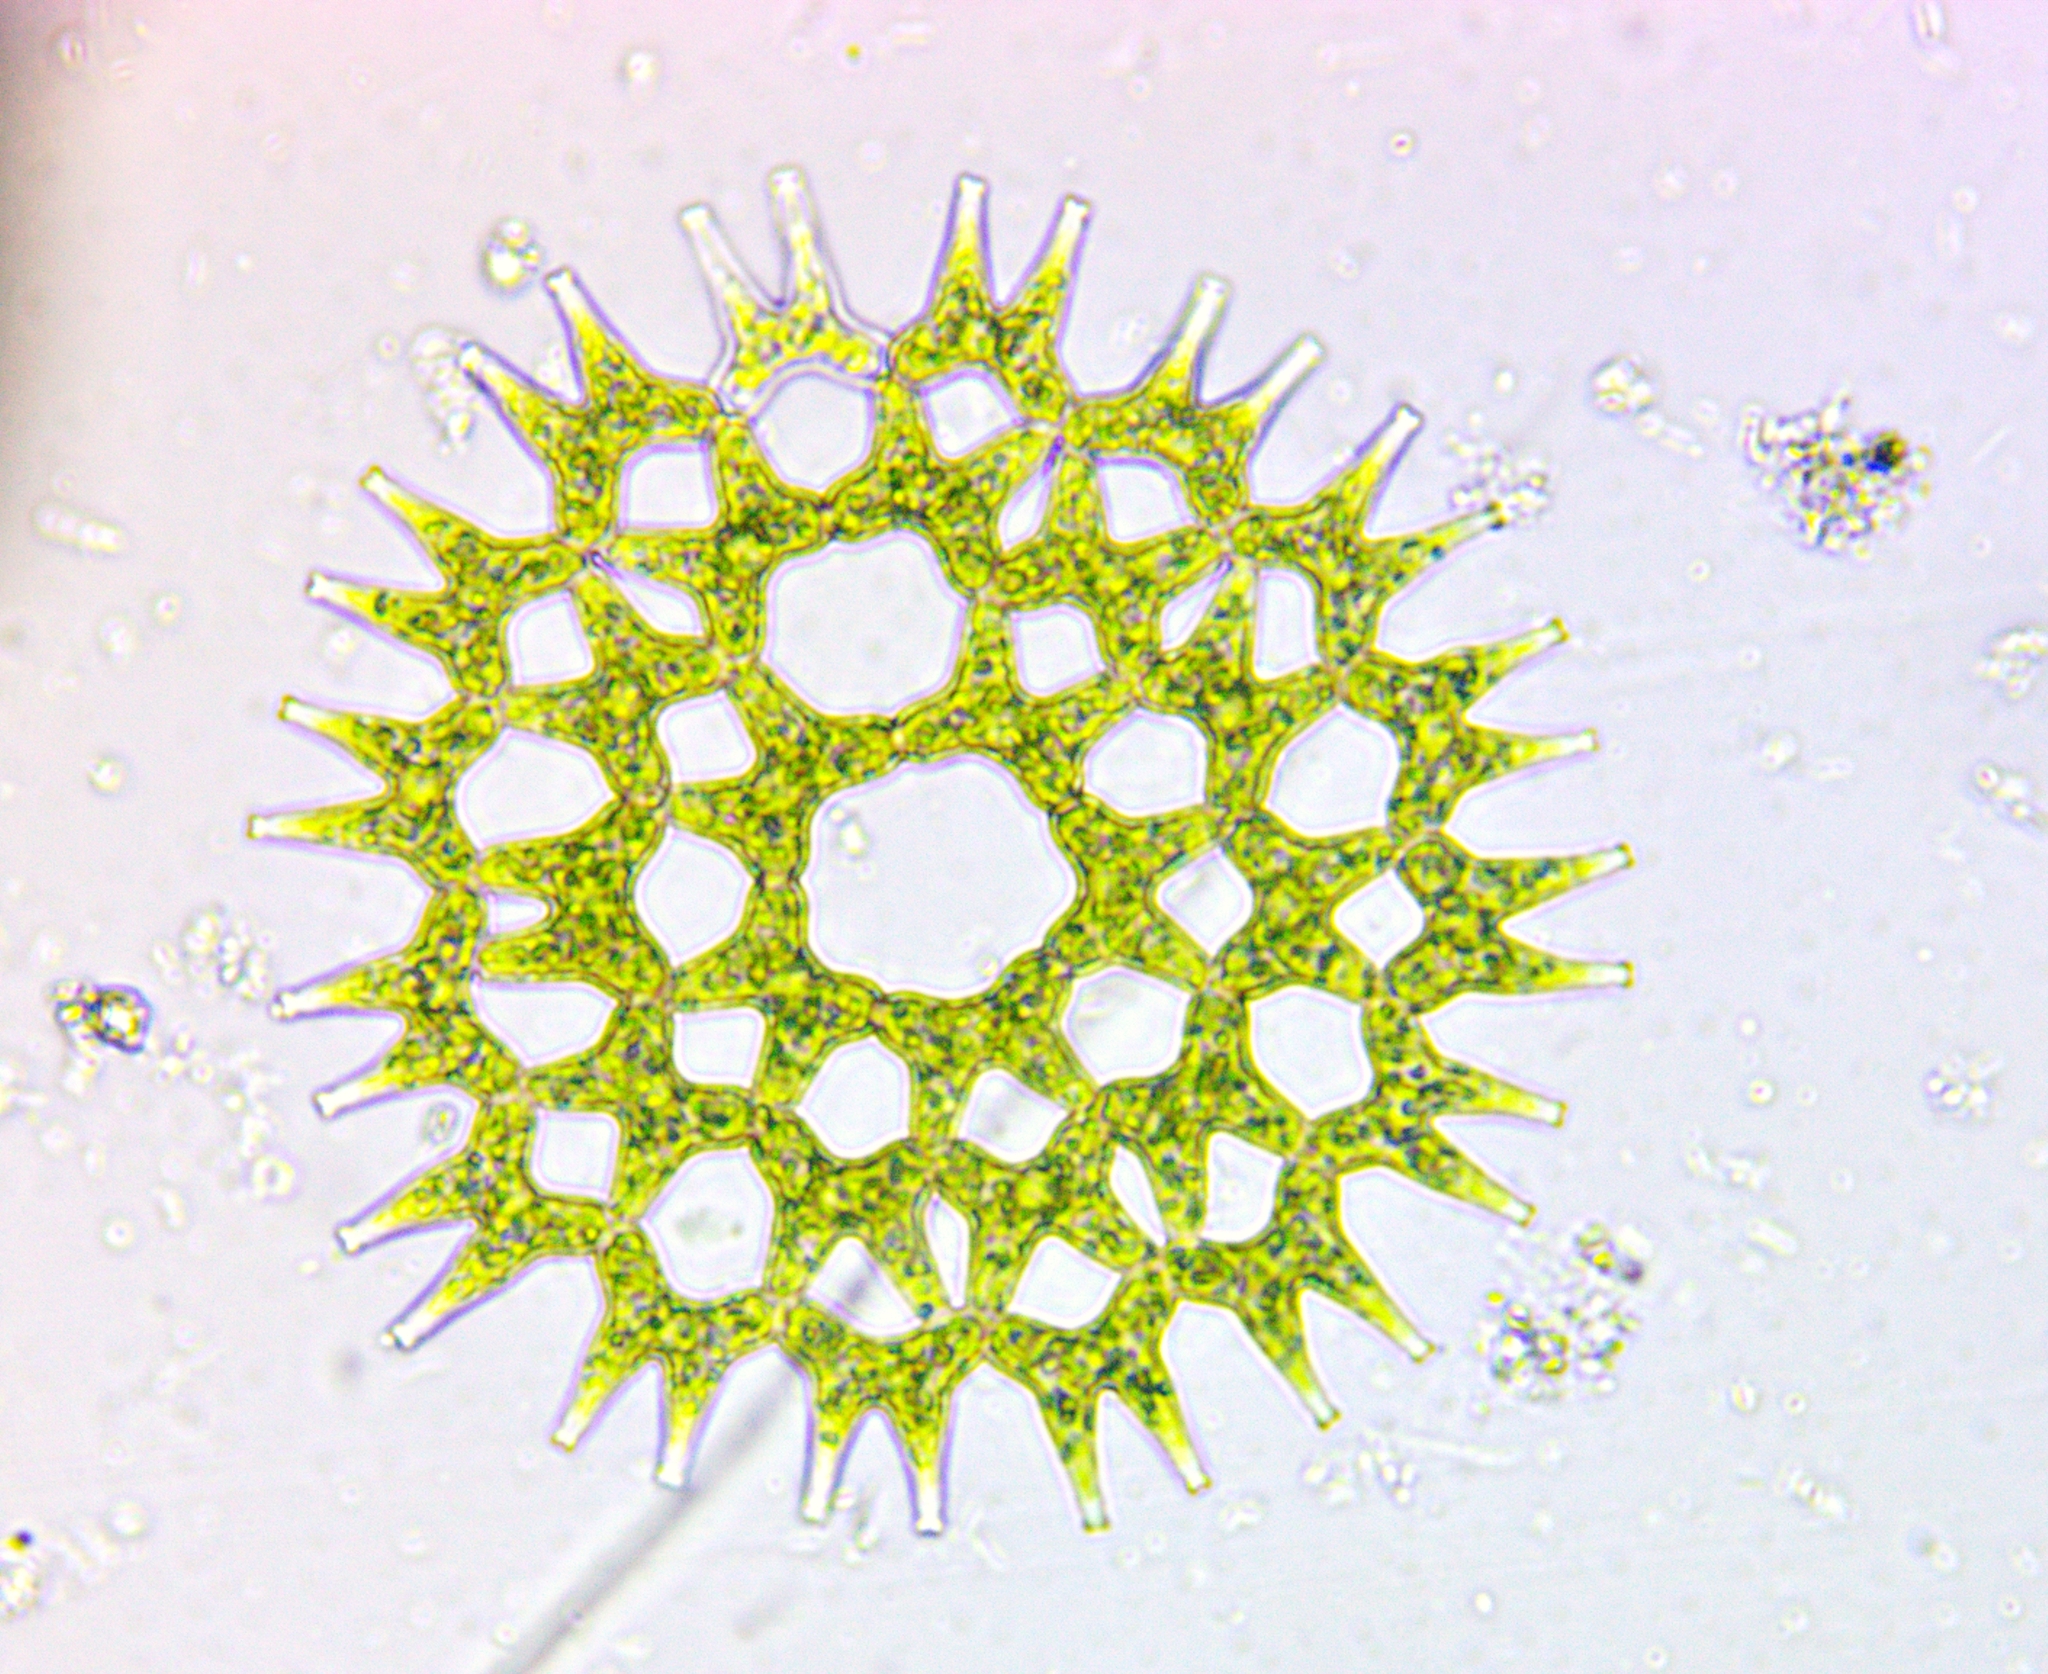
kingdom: Plantae
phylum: Chlorophyta
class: Chlorophyceae
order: Sphaeropleales
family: Hydrodictyaceae
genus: Lacunastrum
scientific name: Lacunastrum gracillimum
